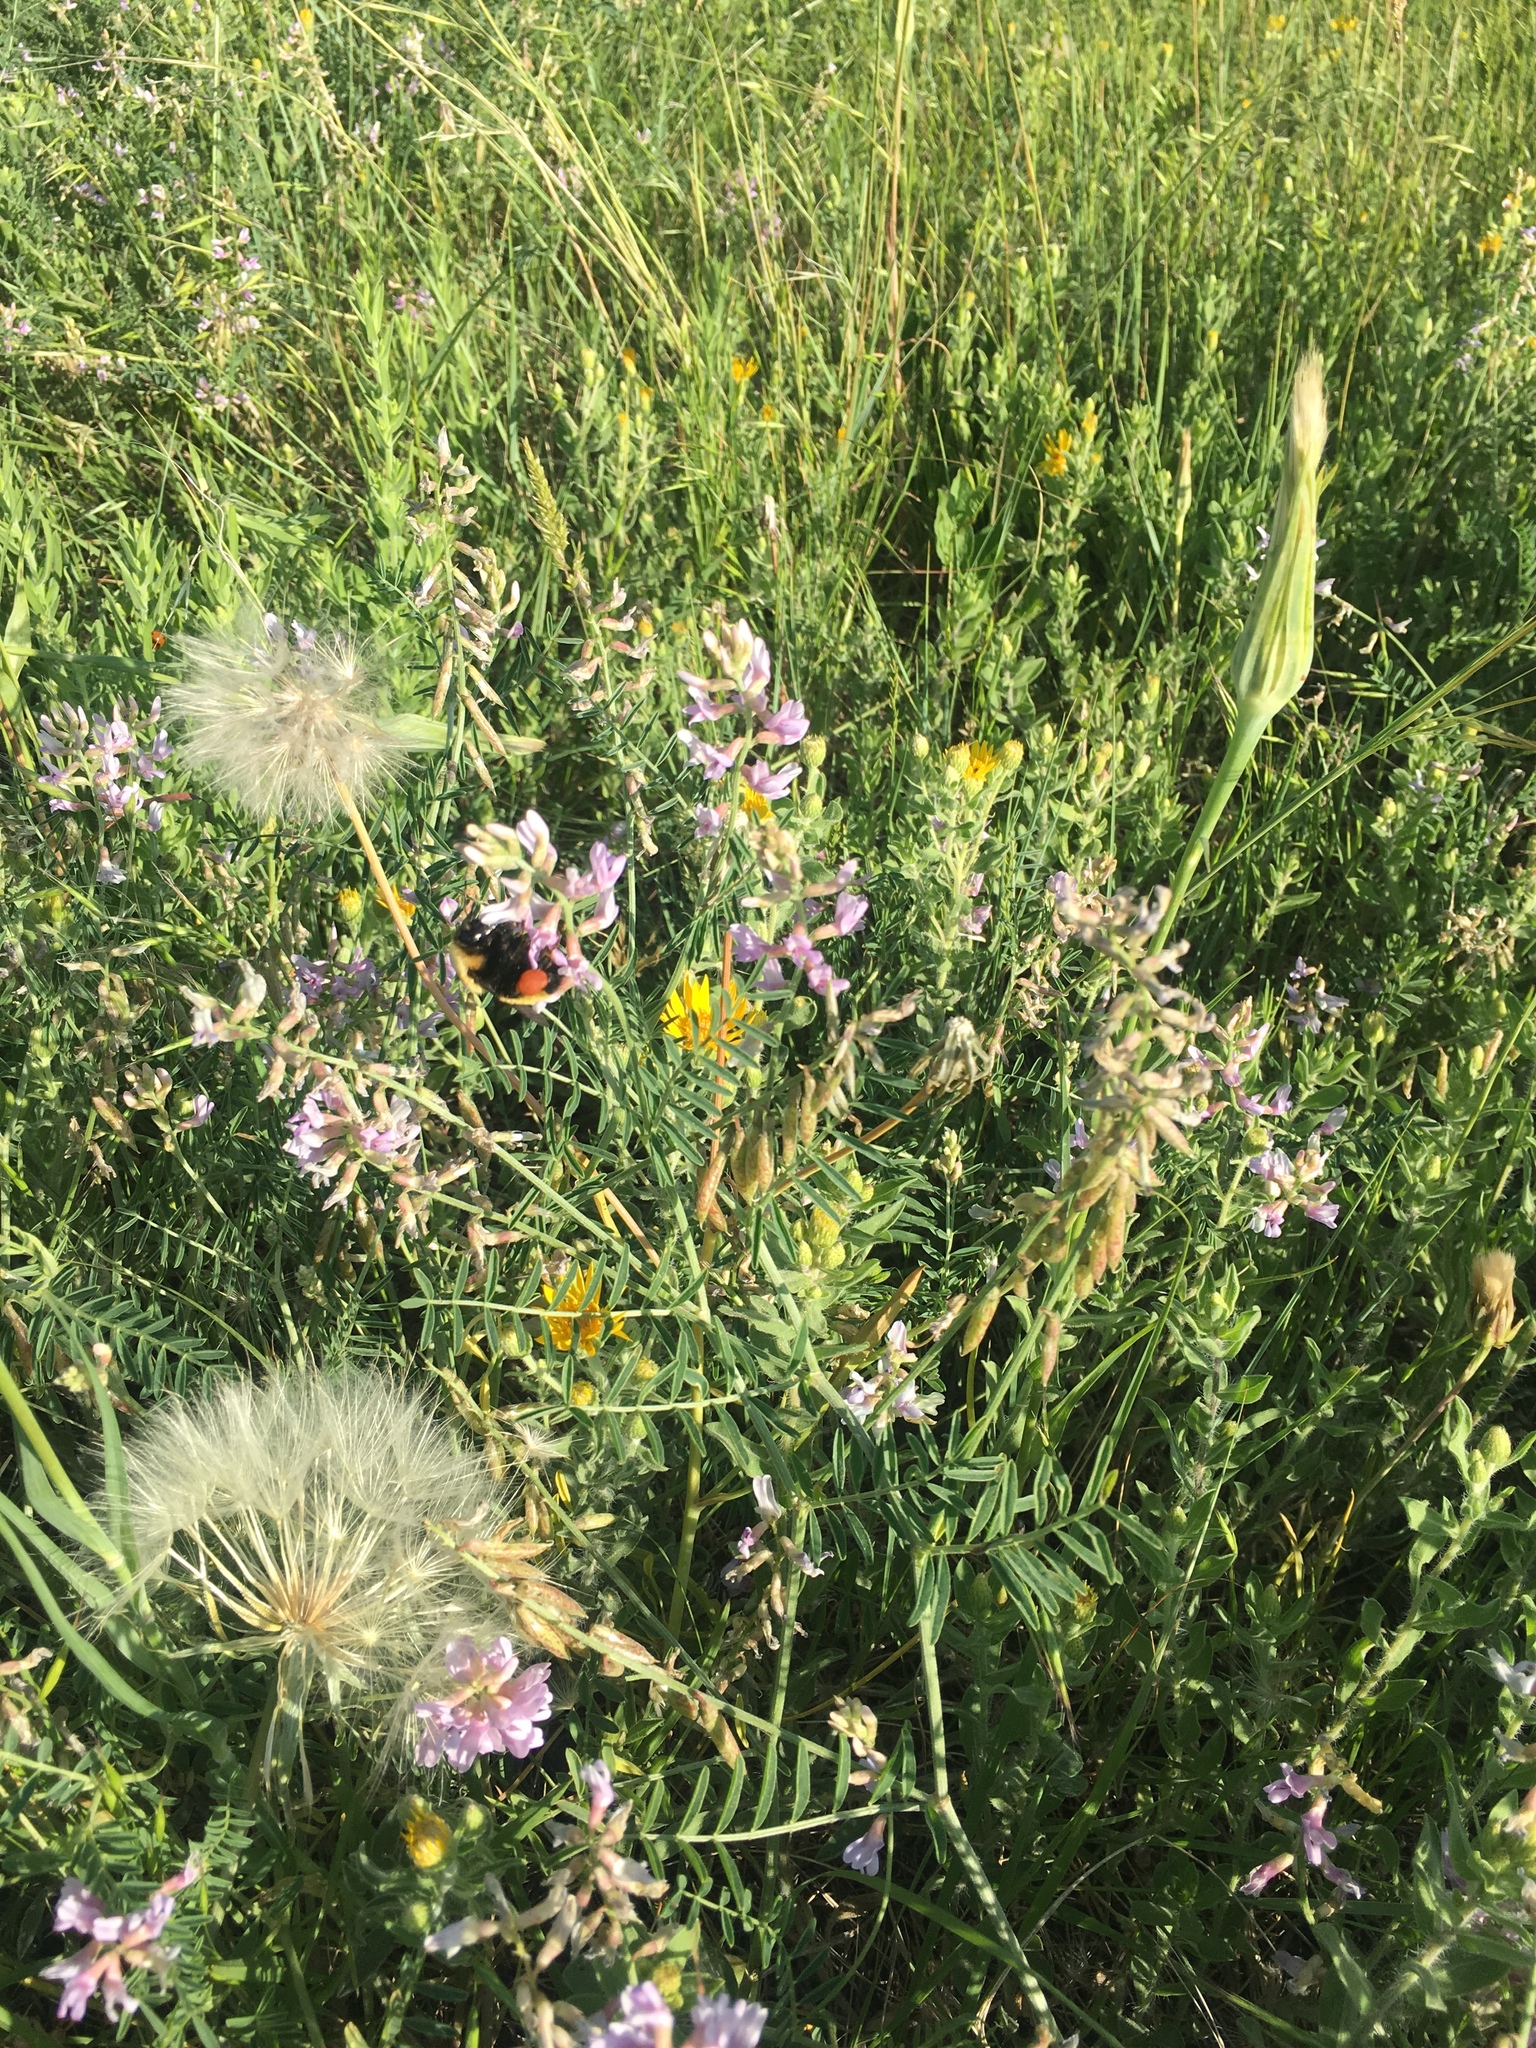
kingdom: Animalia
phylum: Arthropoda
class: Insecta
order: Hymenoptera
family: Apidae
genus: Bombus
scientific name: Bombus nevadensis
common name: Nevada bumble bee
